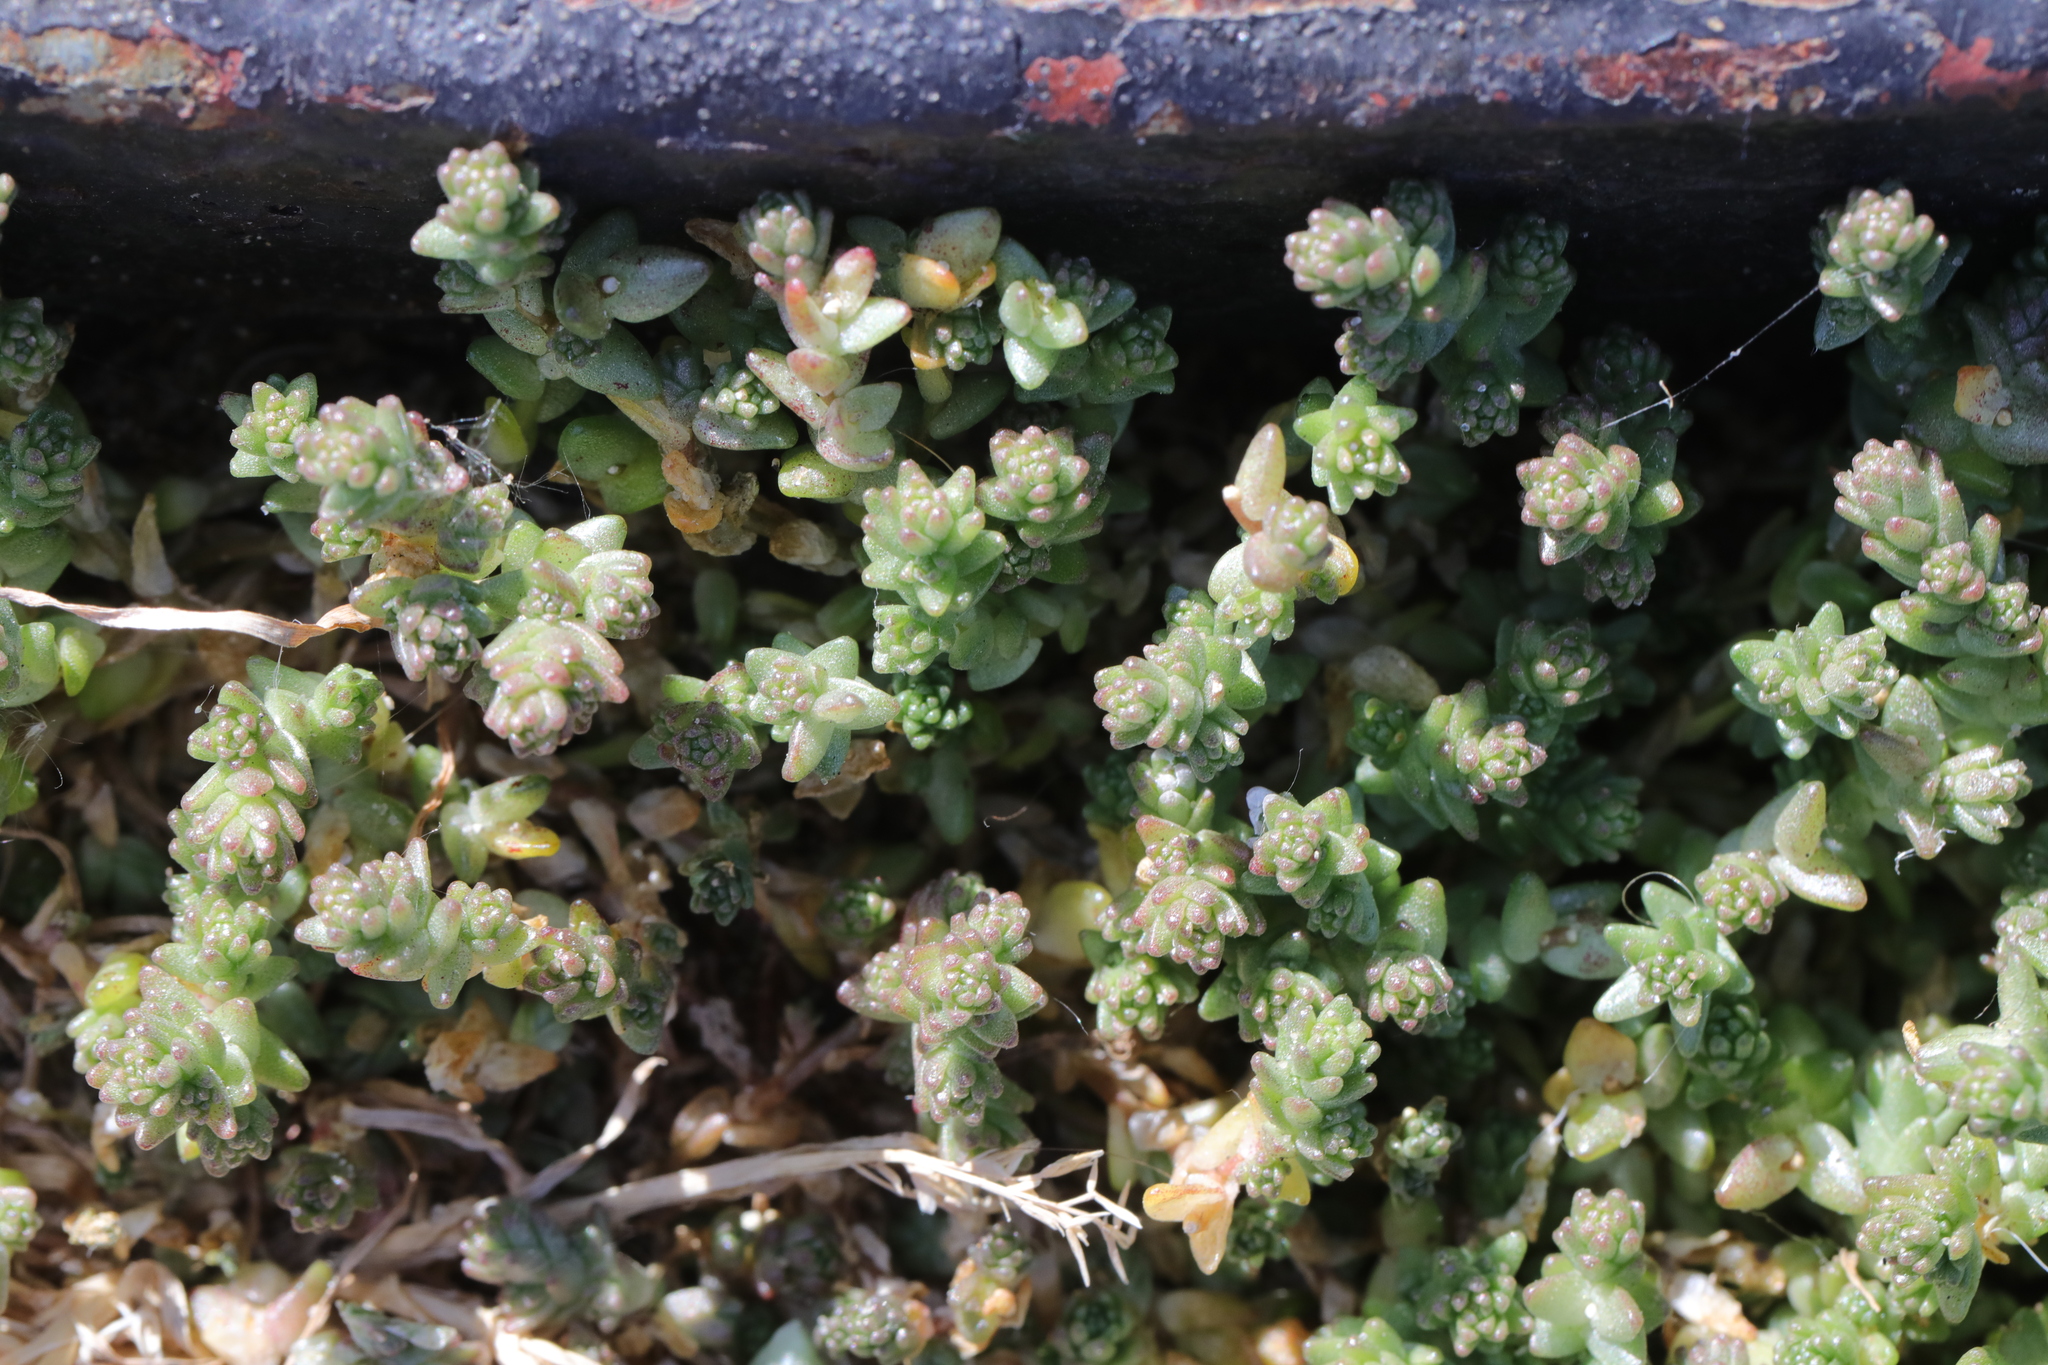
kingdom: Plantae
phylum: Tracheophyta
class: Magnoliopsida
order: Saxifragales
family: Crassulaceae
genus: Sedum
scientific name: Sedum acre
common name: Biting stonecrop
